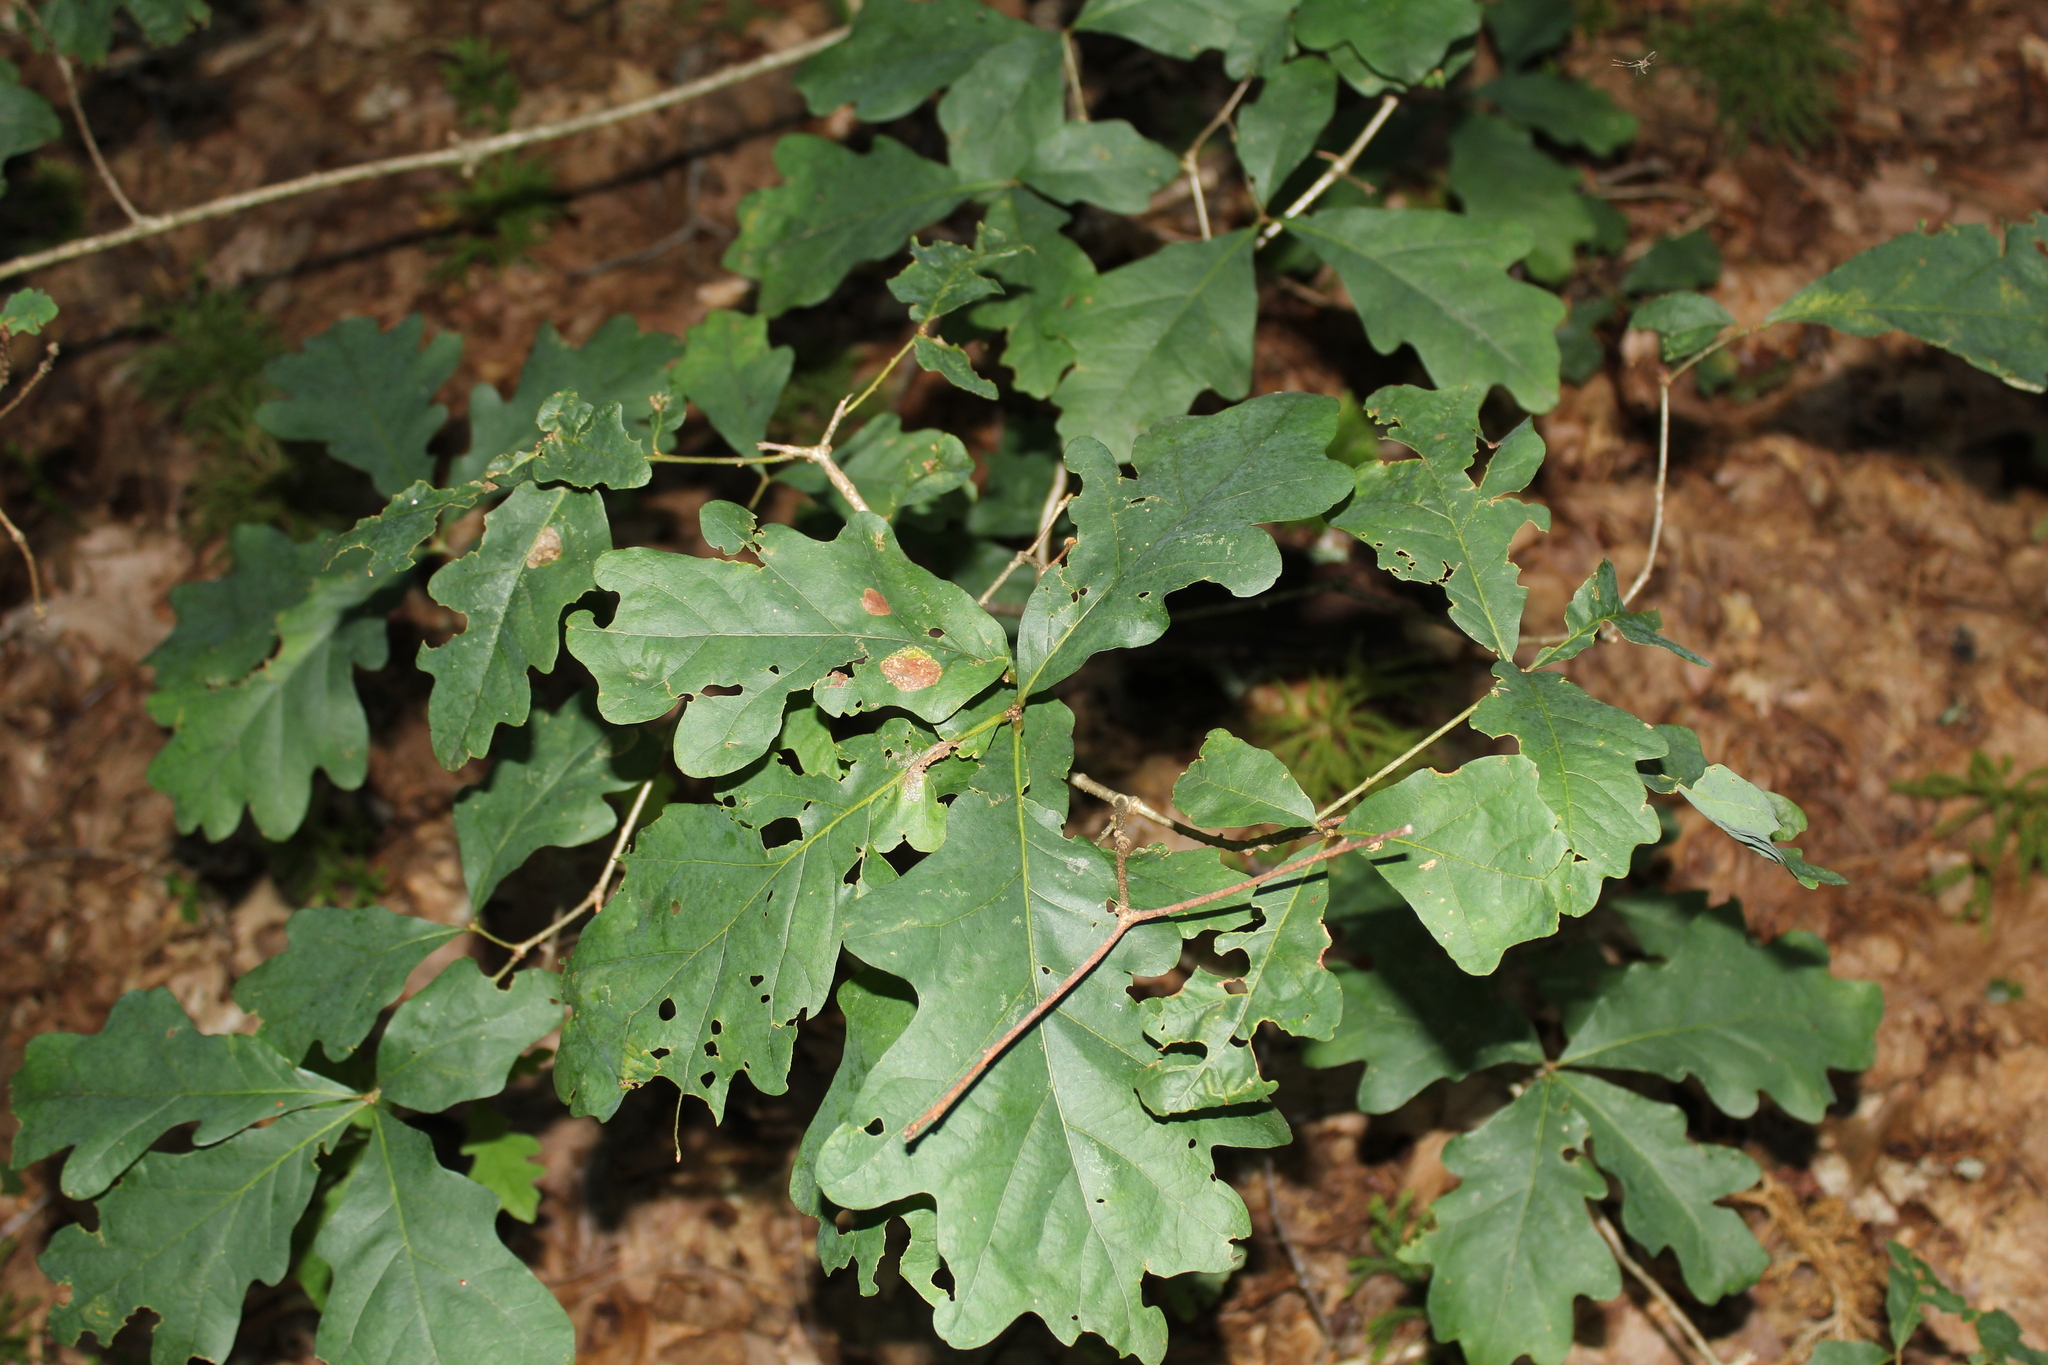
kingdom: Plantae
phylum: Tracheophyta
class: Magnoliopsida
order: Fagales
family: Fagaceae
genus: Quercus
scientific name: Quercus alba
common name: White oak
